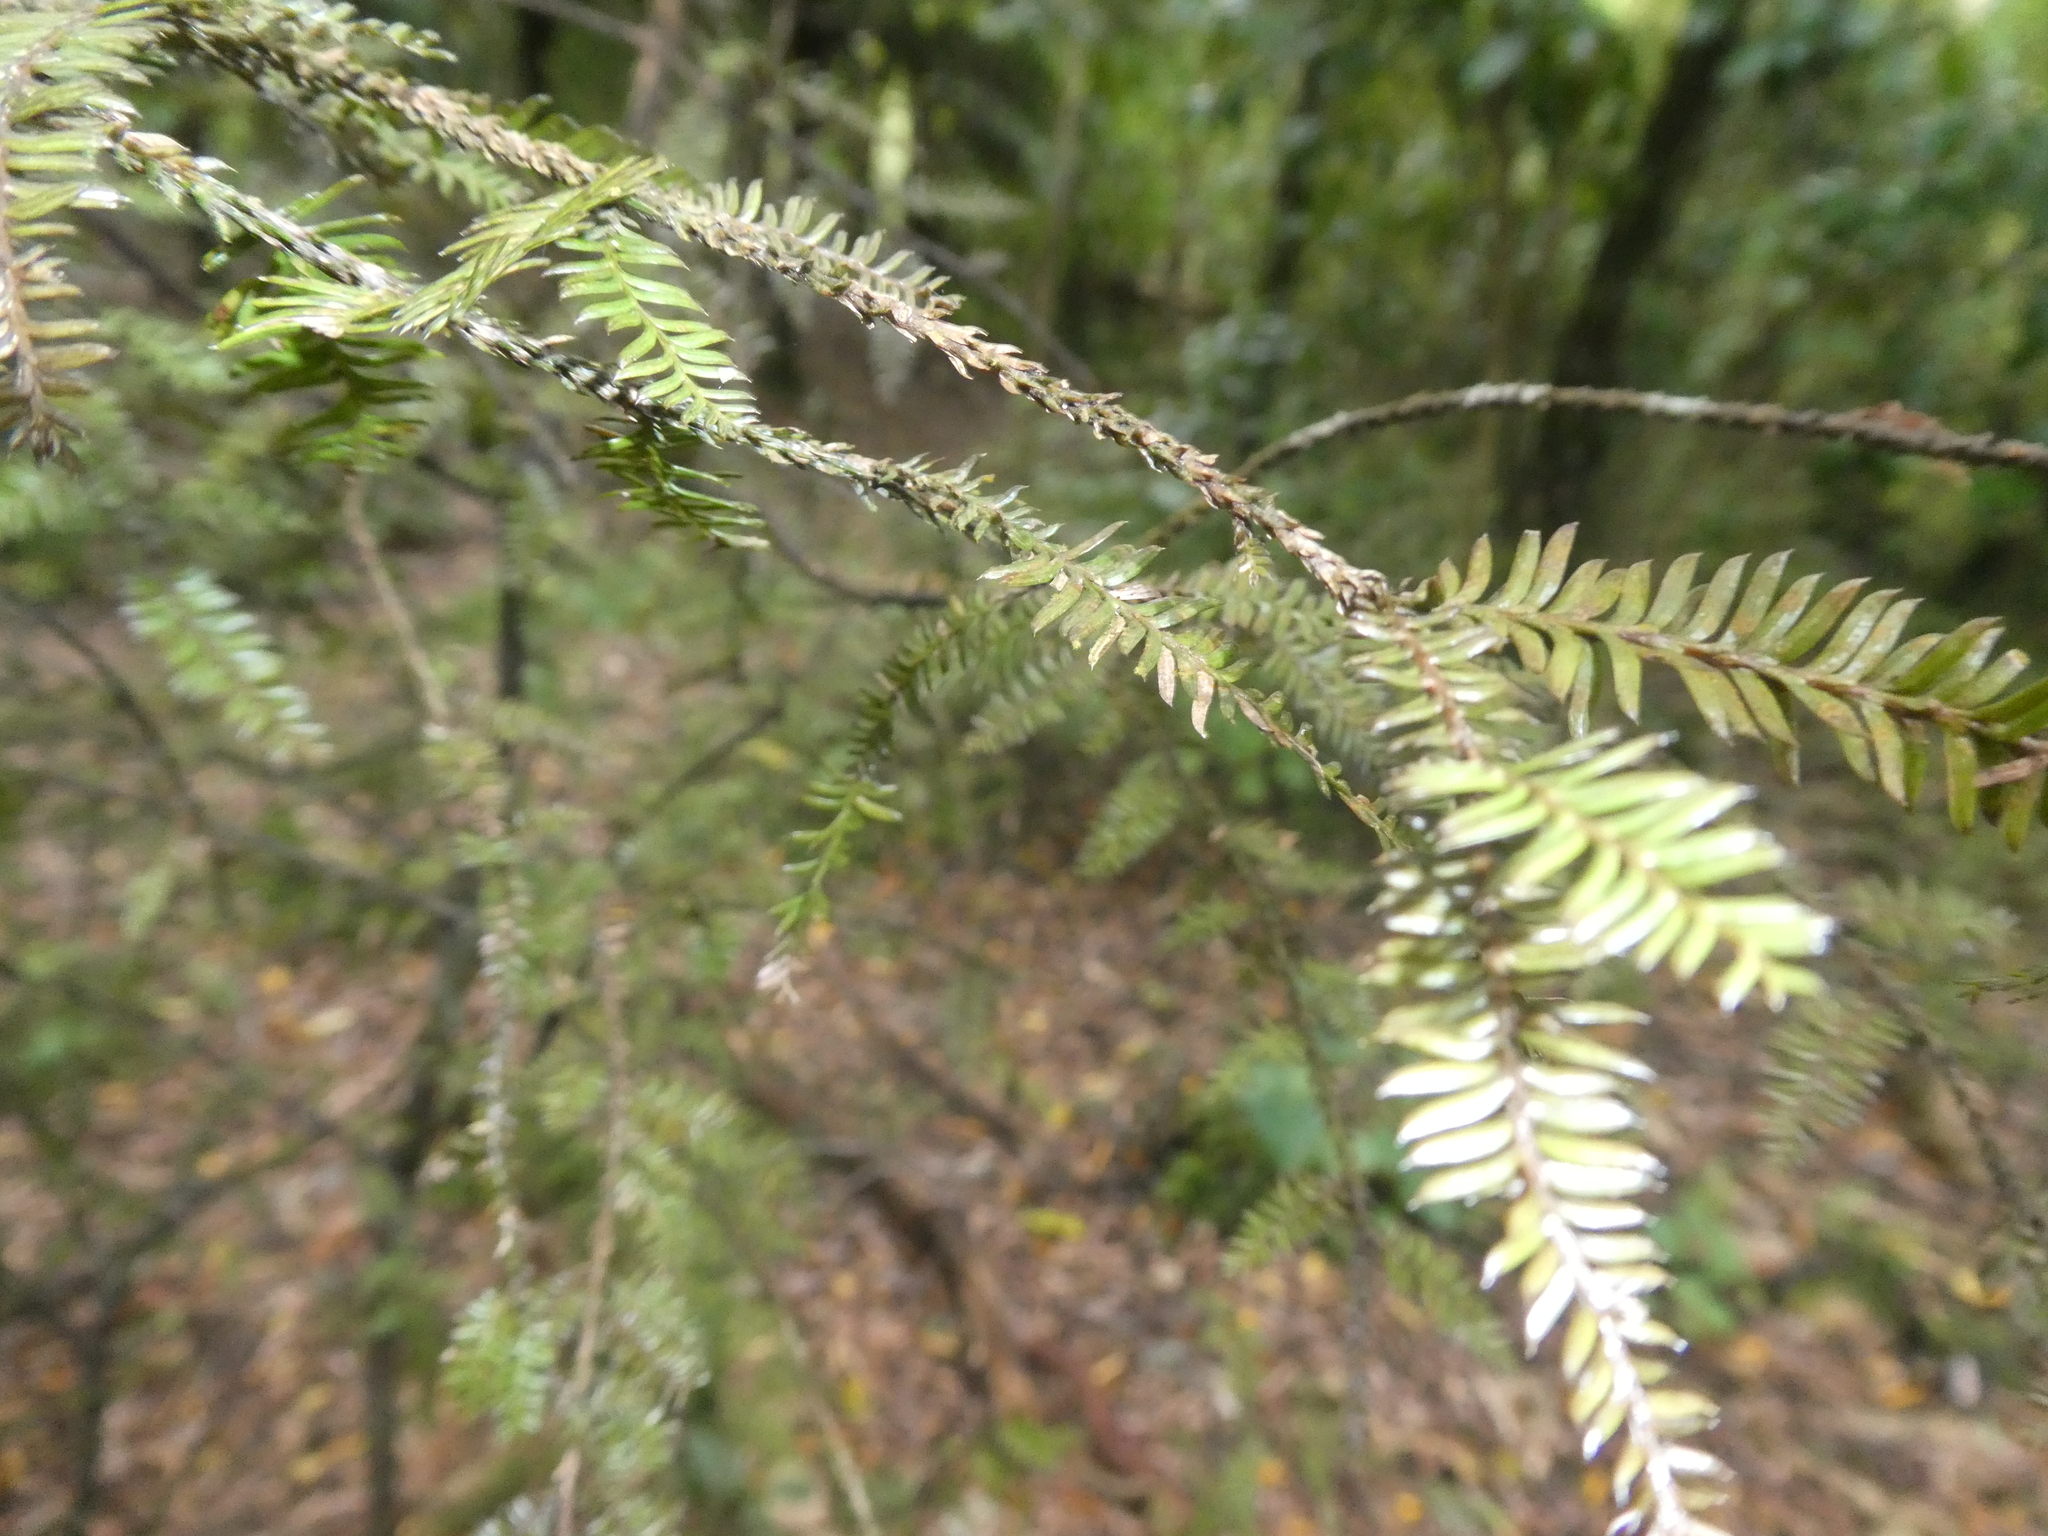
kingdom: Plantae
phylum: Tracheophyta
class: Pinopsida
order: Pinales
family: Podocarpaceae
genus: Dacrycarpus
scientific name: Dacrycarpus dacrydioides
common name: White pine
